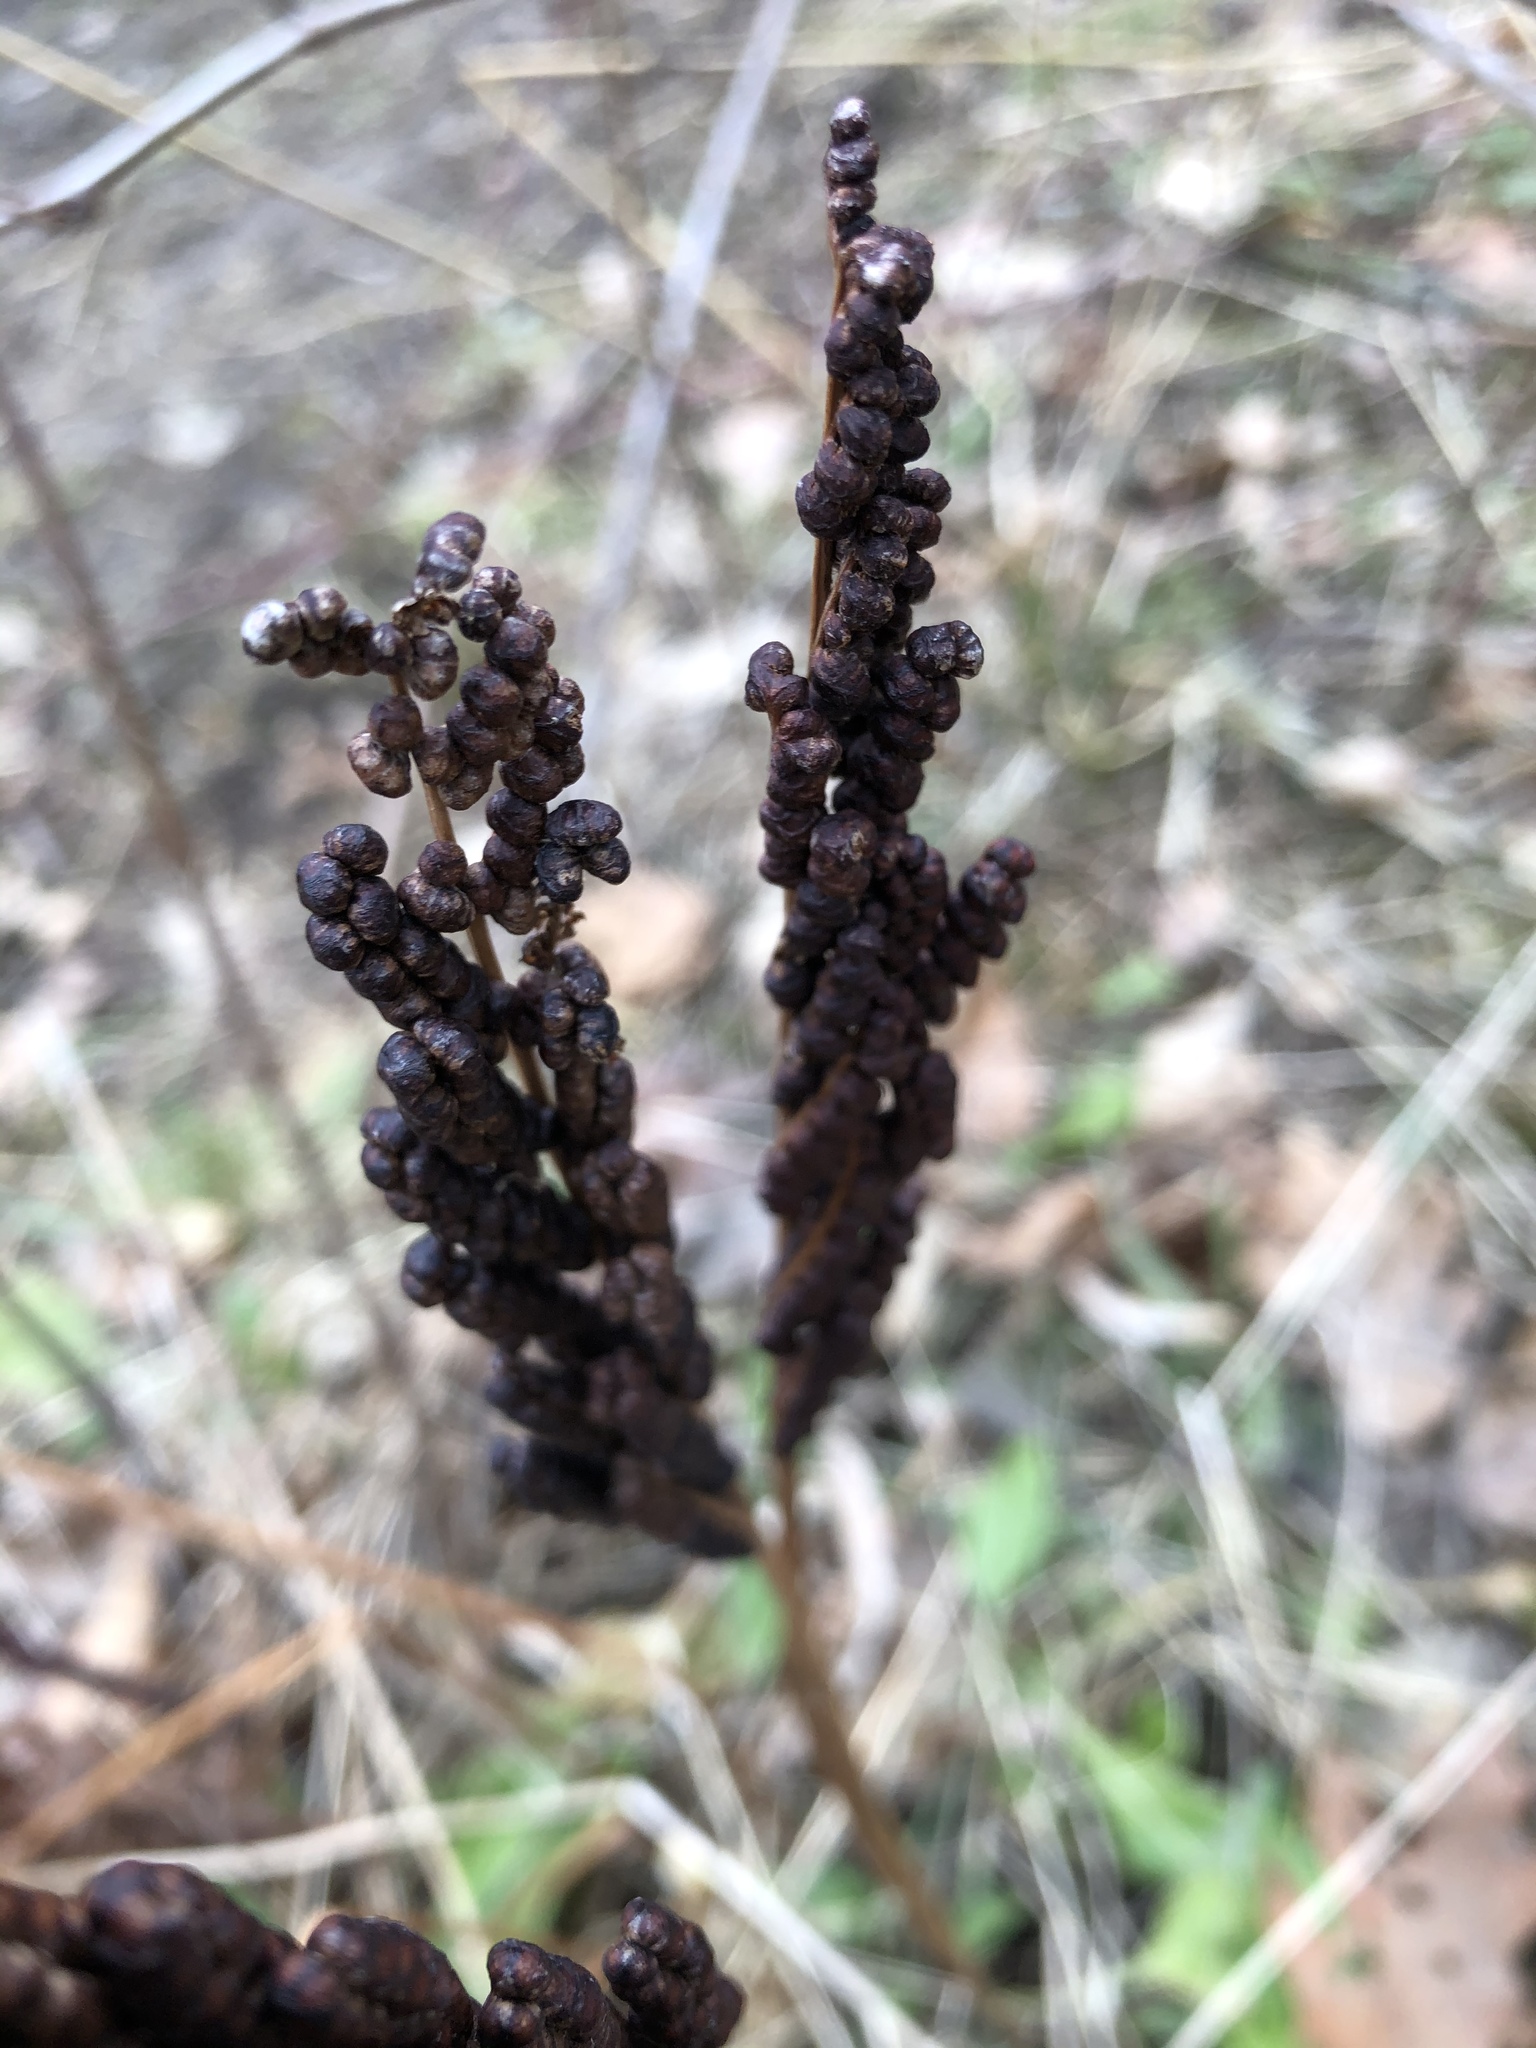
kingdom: Plantae
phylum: Tracheophyta
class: Polypodiopsida
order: Polypodiales
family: Onocleaceae
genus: Onoclea
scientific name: Onoclea sensibilis
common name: Sensitive fern
